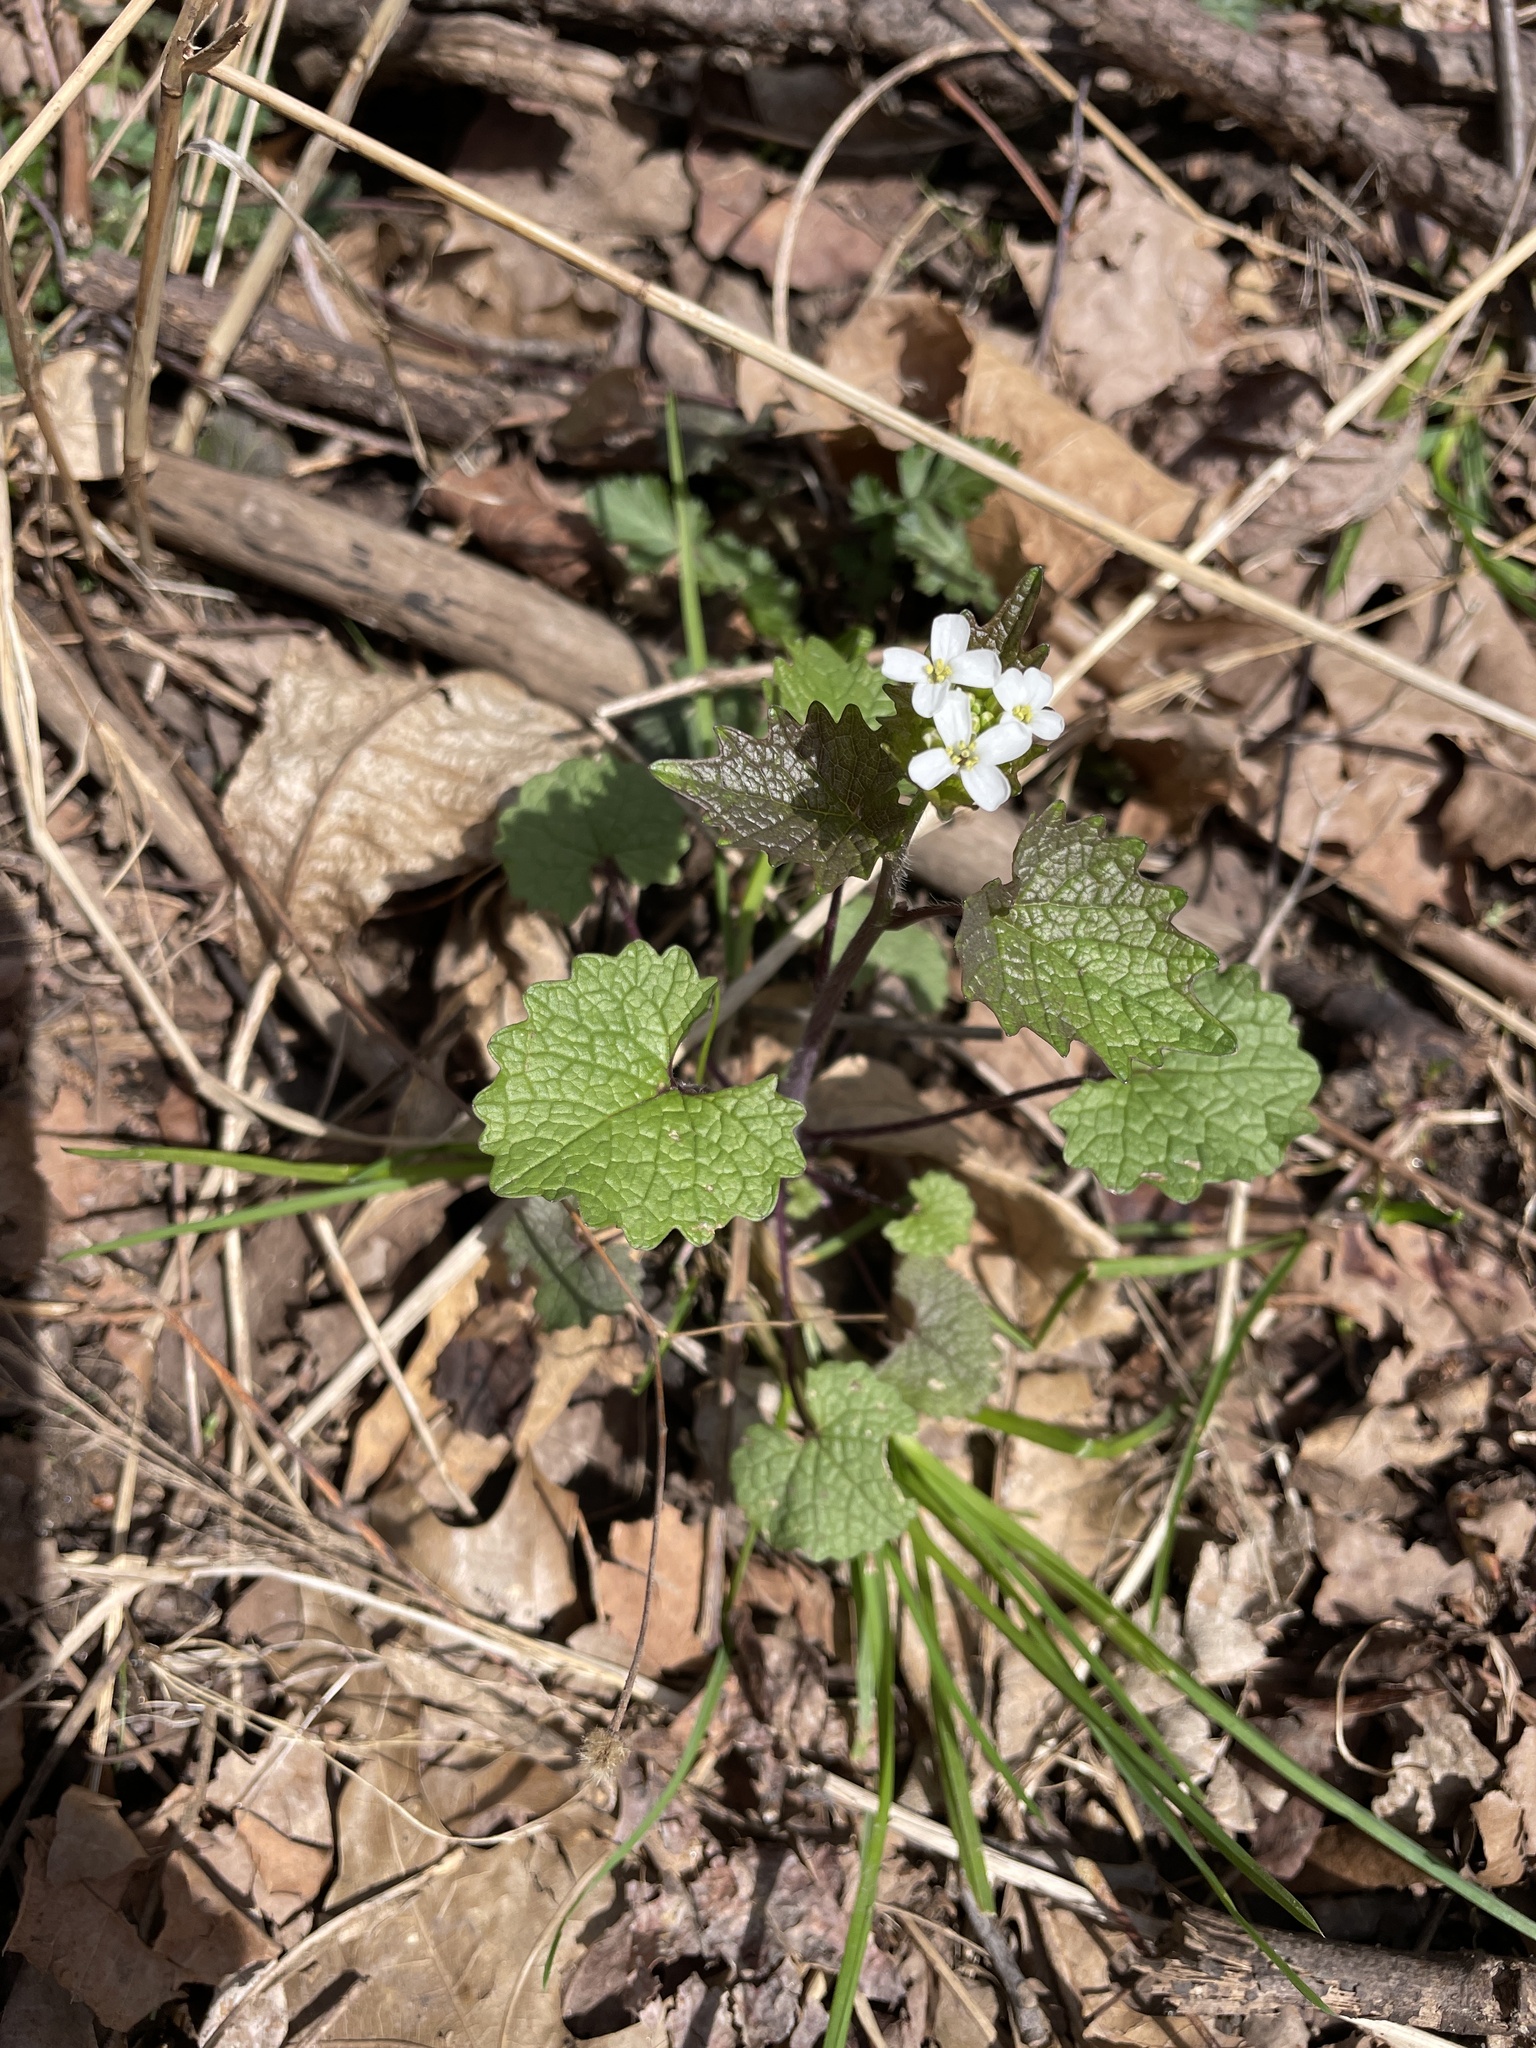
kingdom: Plantae
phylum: Tracheophyta
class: Magnoliopsida
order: Brassicales
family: Brassicaceae
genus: Alliaria
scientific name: Alliaria petiolata
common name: Garlic mustard
